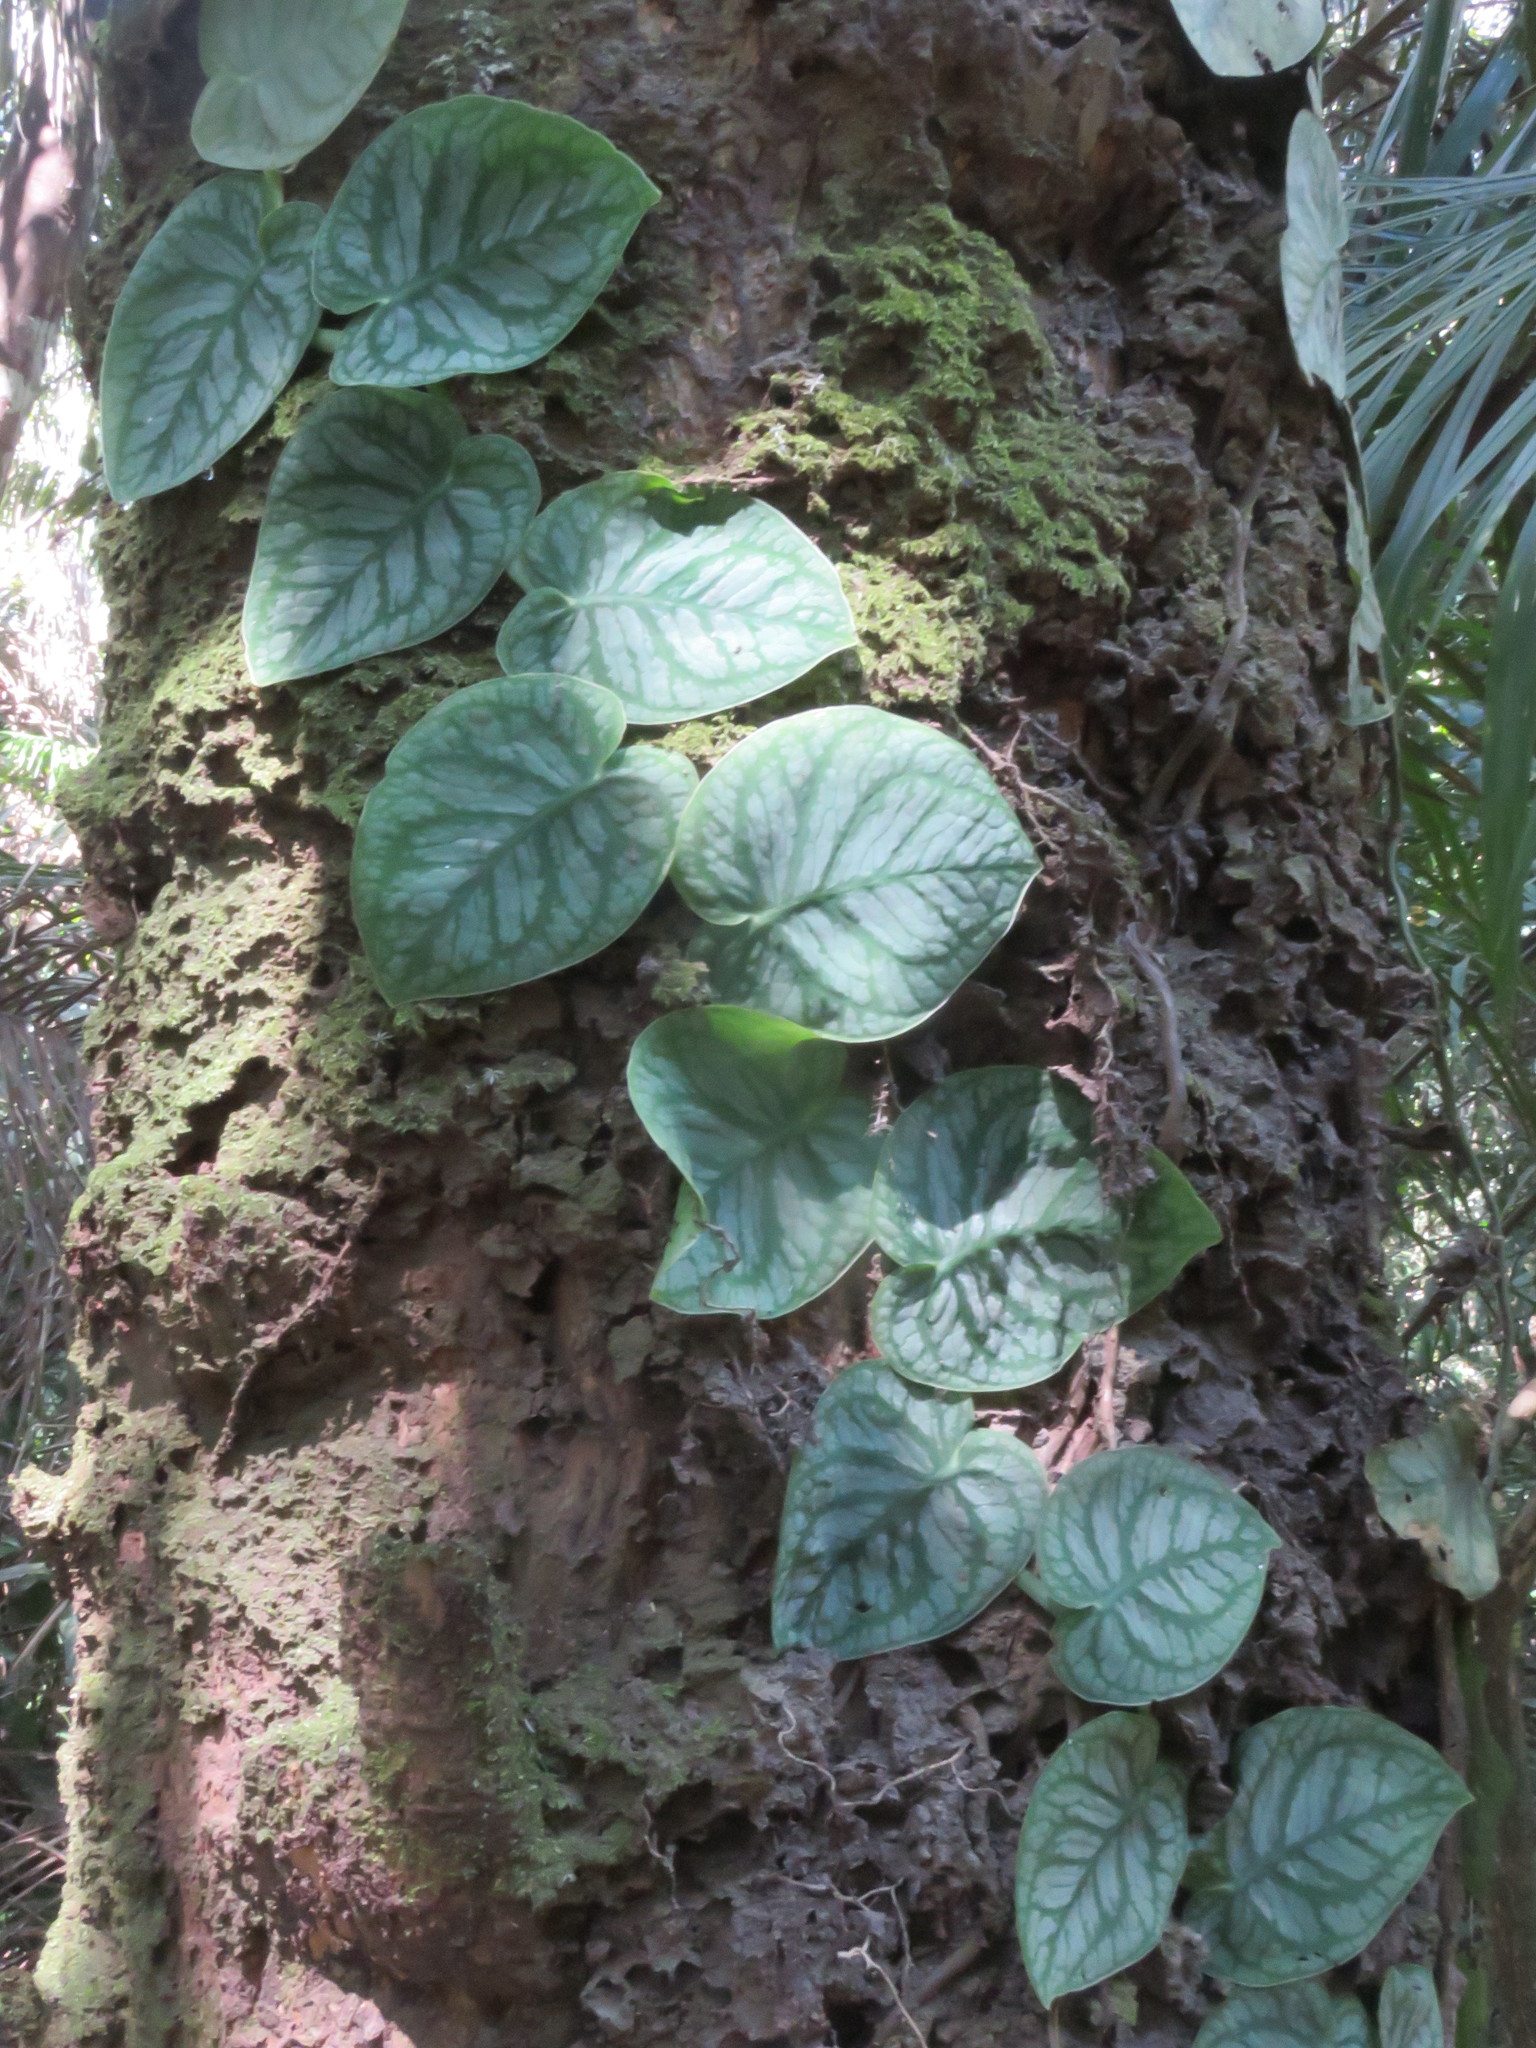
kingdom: Plantae
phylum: Tracheophyta
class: Liliopsida
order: Alismatales
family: Araceae
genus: Monstera
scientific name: Monstera dubia
